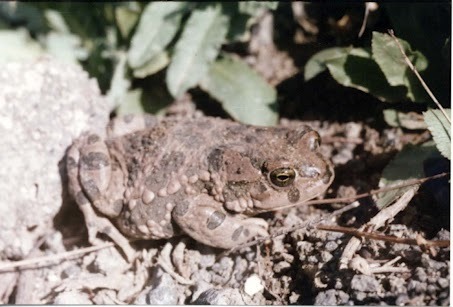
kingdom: Animalia
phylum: Chordata
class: Amphibia
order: Anura
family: Bufonidae
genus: Bufotes
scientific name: Bufotes viridis
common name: European green toad
